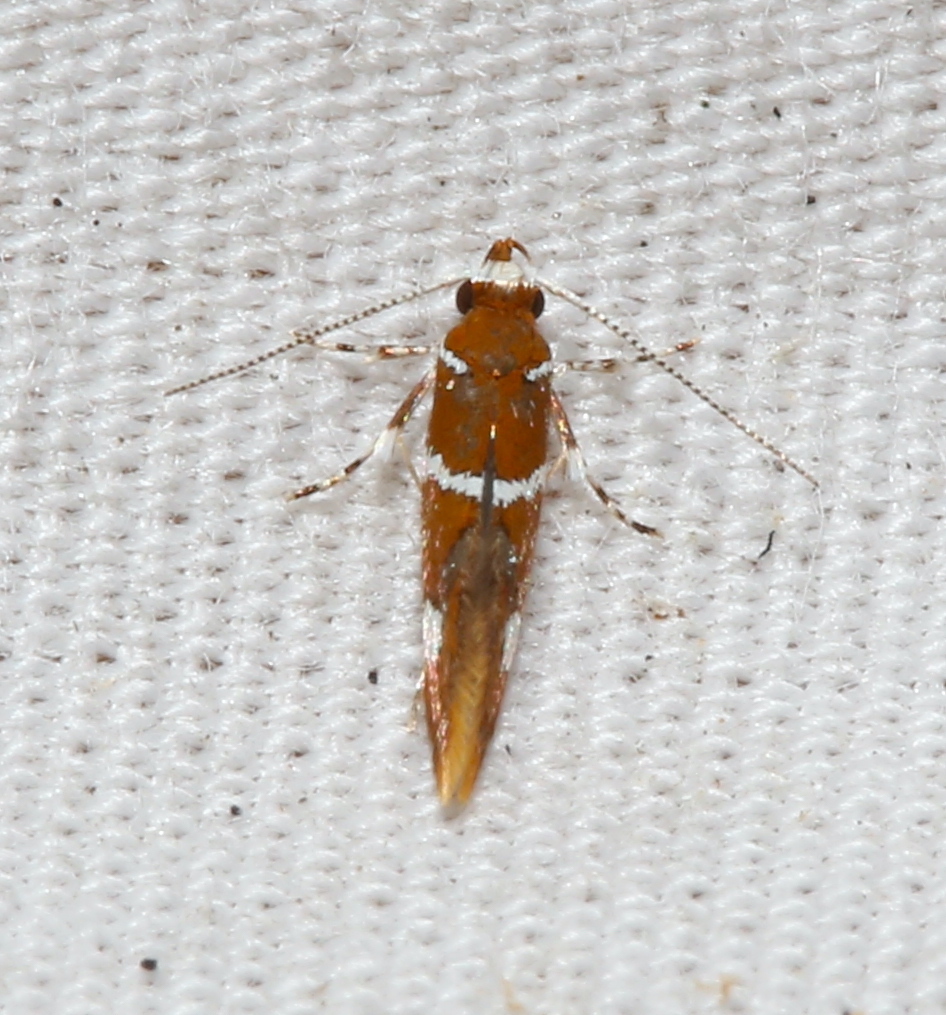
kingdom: Animalia
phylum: Arthropoda
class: Insecta
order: Lepidoptera
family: Oecophoridae
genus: Promalactis
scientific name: Promalactis suzukiella
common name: Moth
